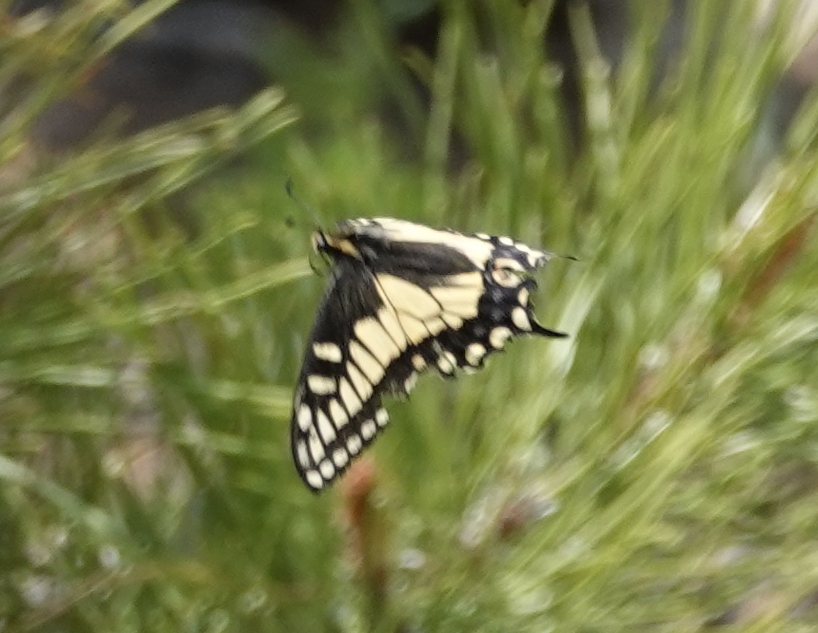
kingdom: Animalia
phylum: Arthropoda
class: Insecta
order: Lepidoptera
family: Papilionidae
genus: Papilio
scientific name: Papilio zelicaon
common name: Anise swallowtail
